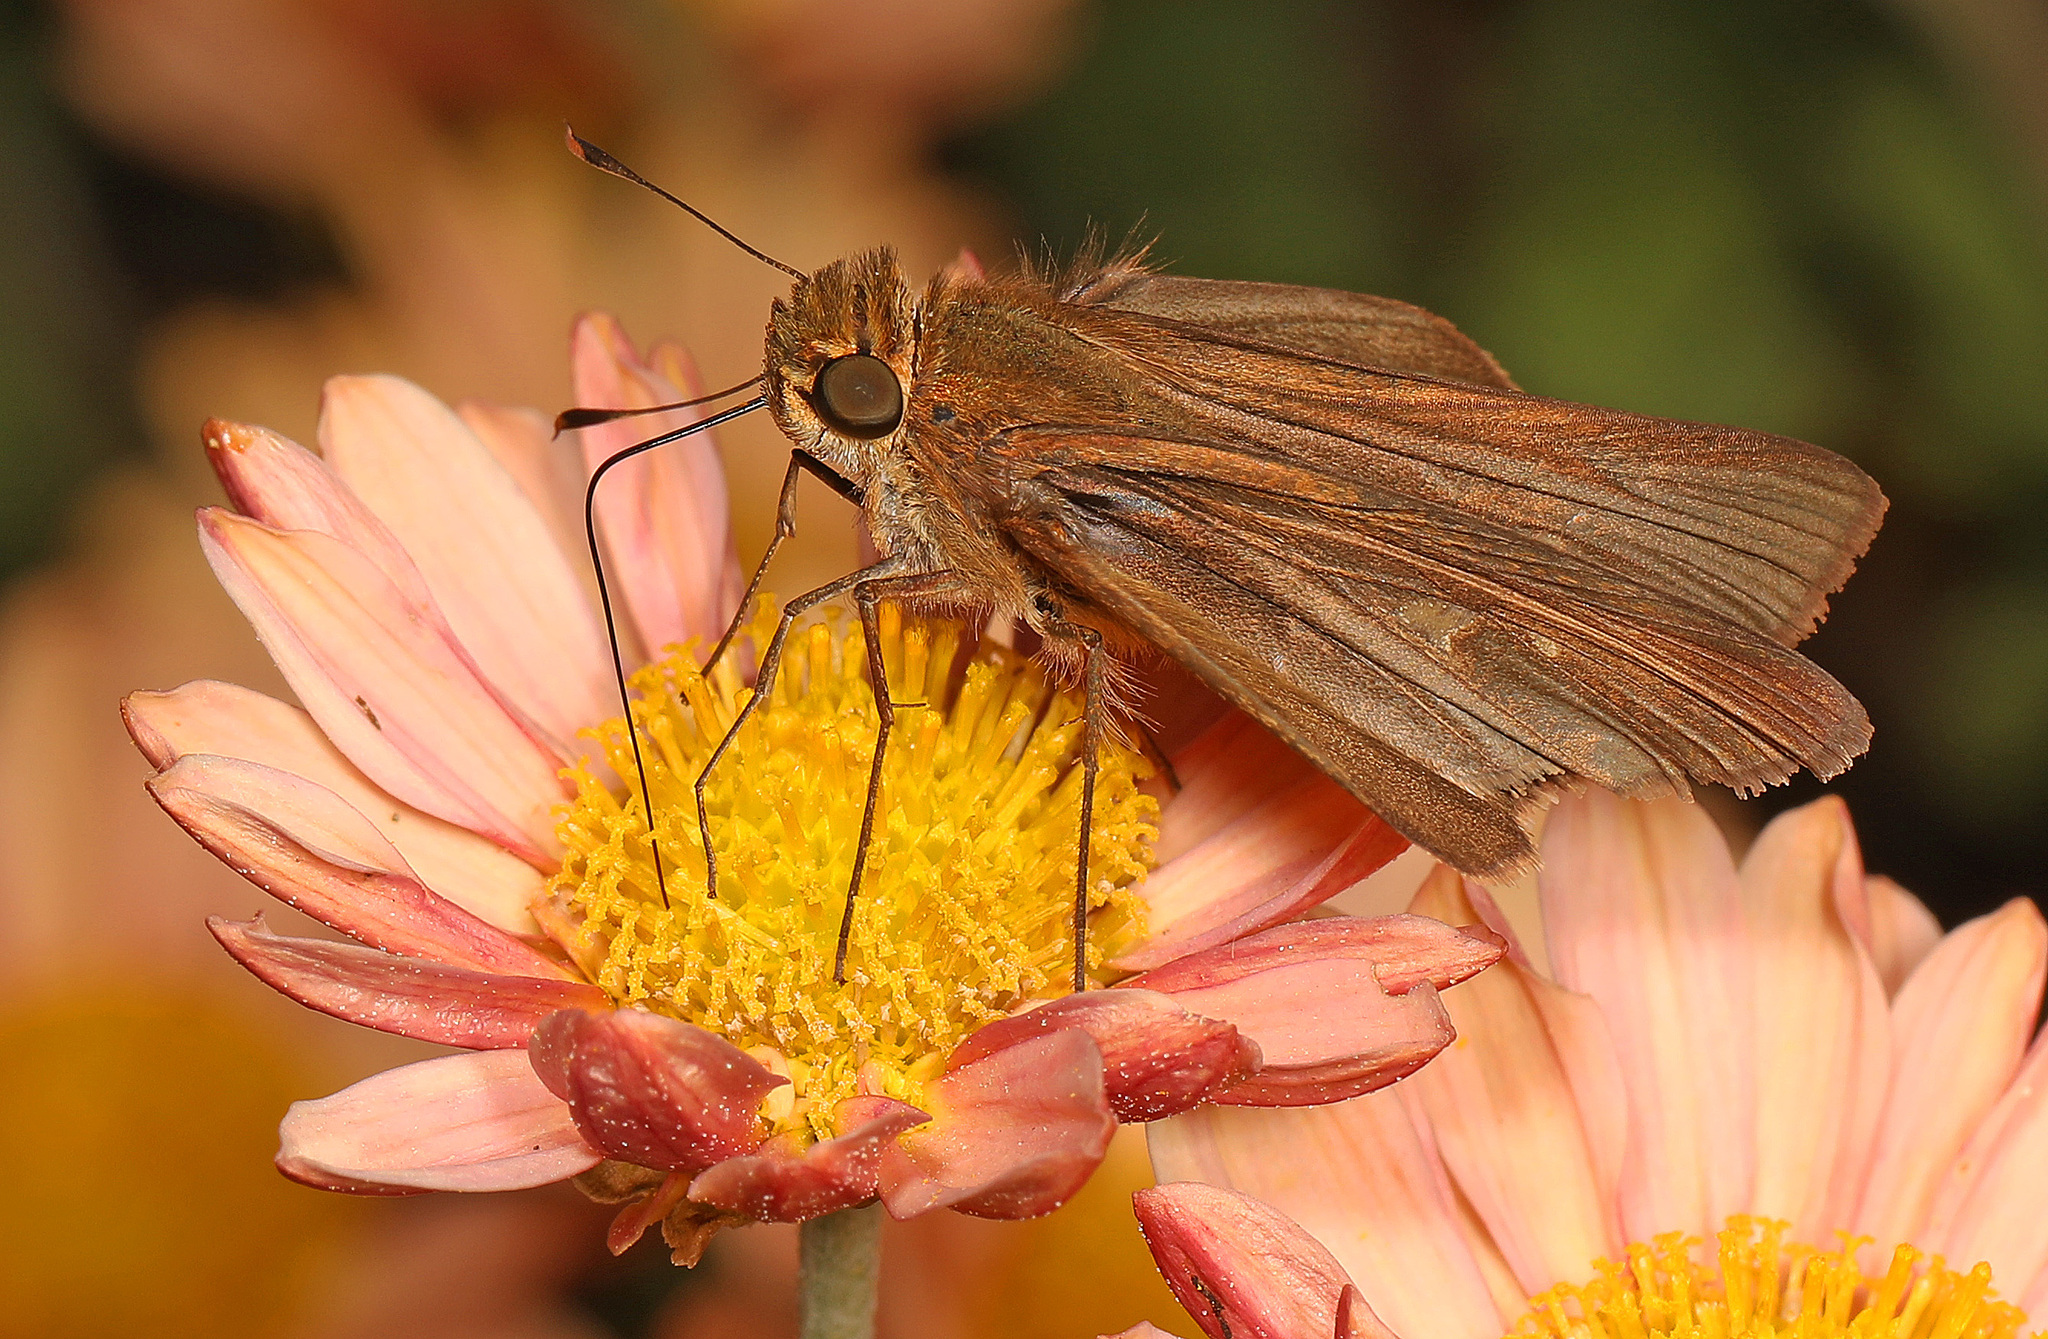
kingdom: Animalia
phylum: Arthropoda
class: Insecta
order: Lepidoptera
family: Hesperiidae
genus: Panoquina
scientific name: Panoquina ocola
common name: Ocola skipper
